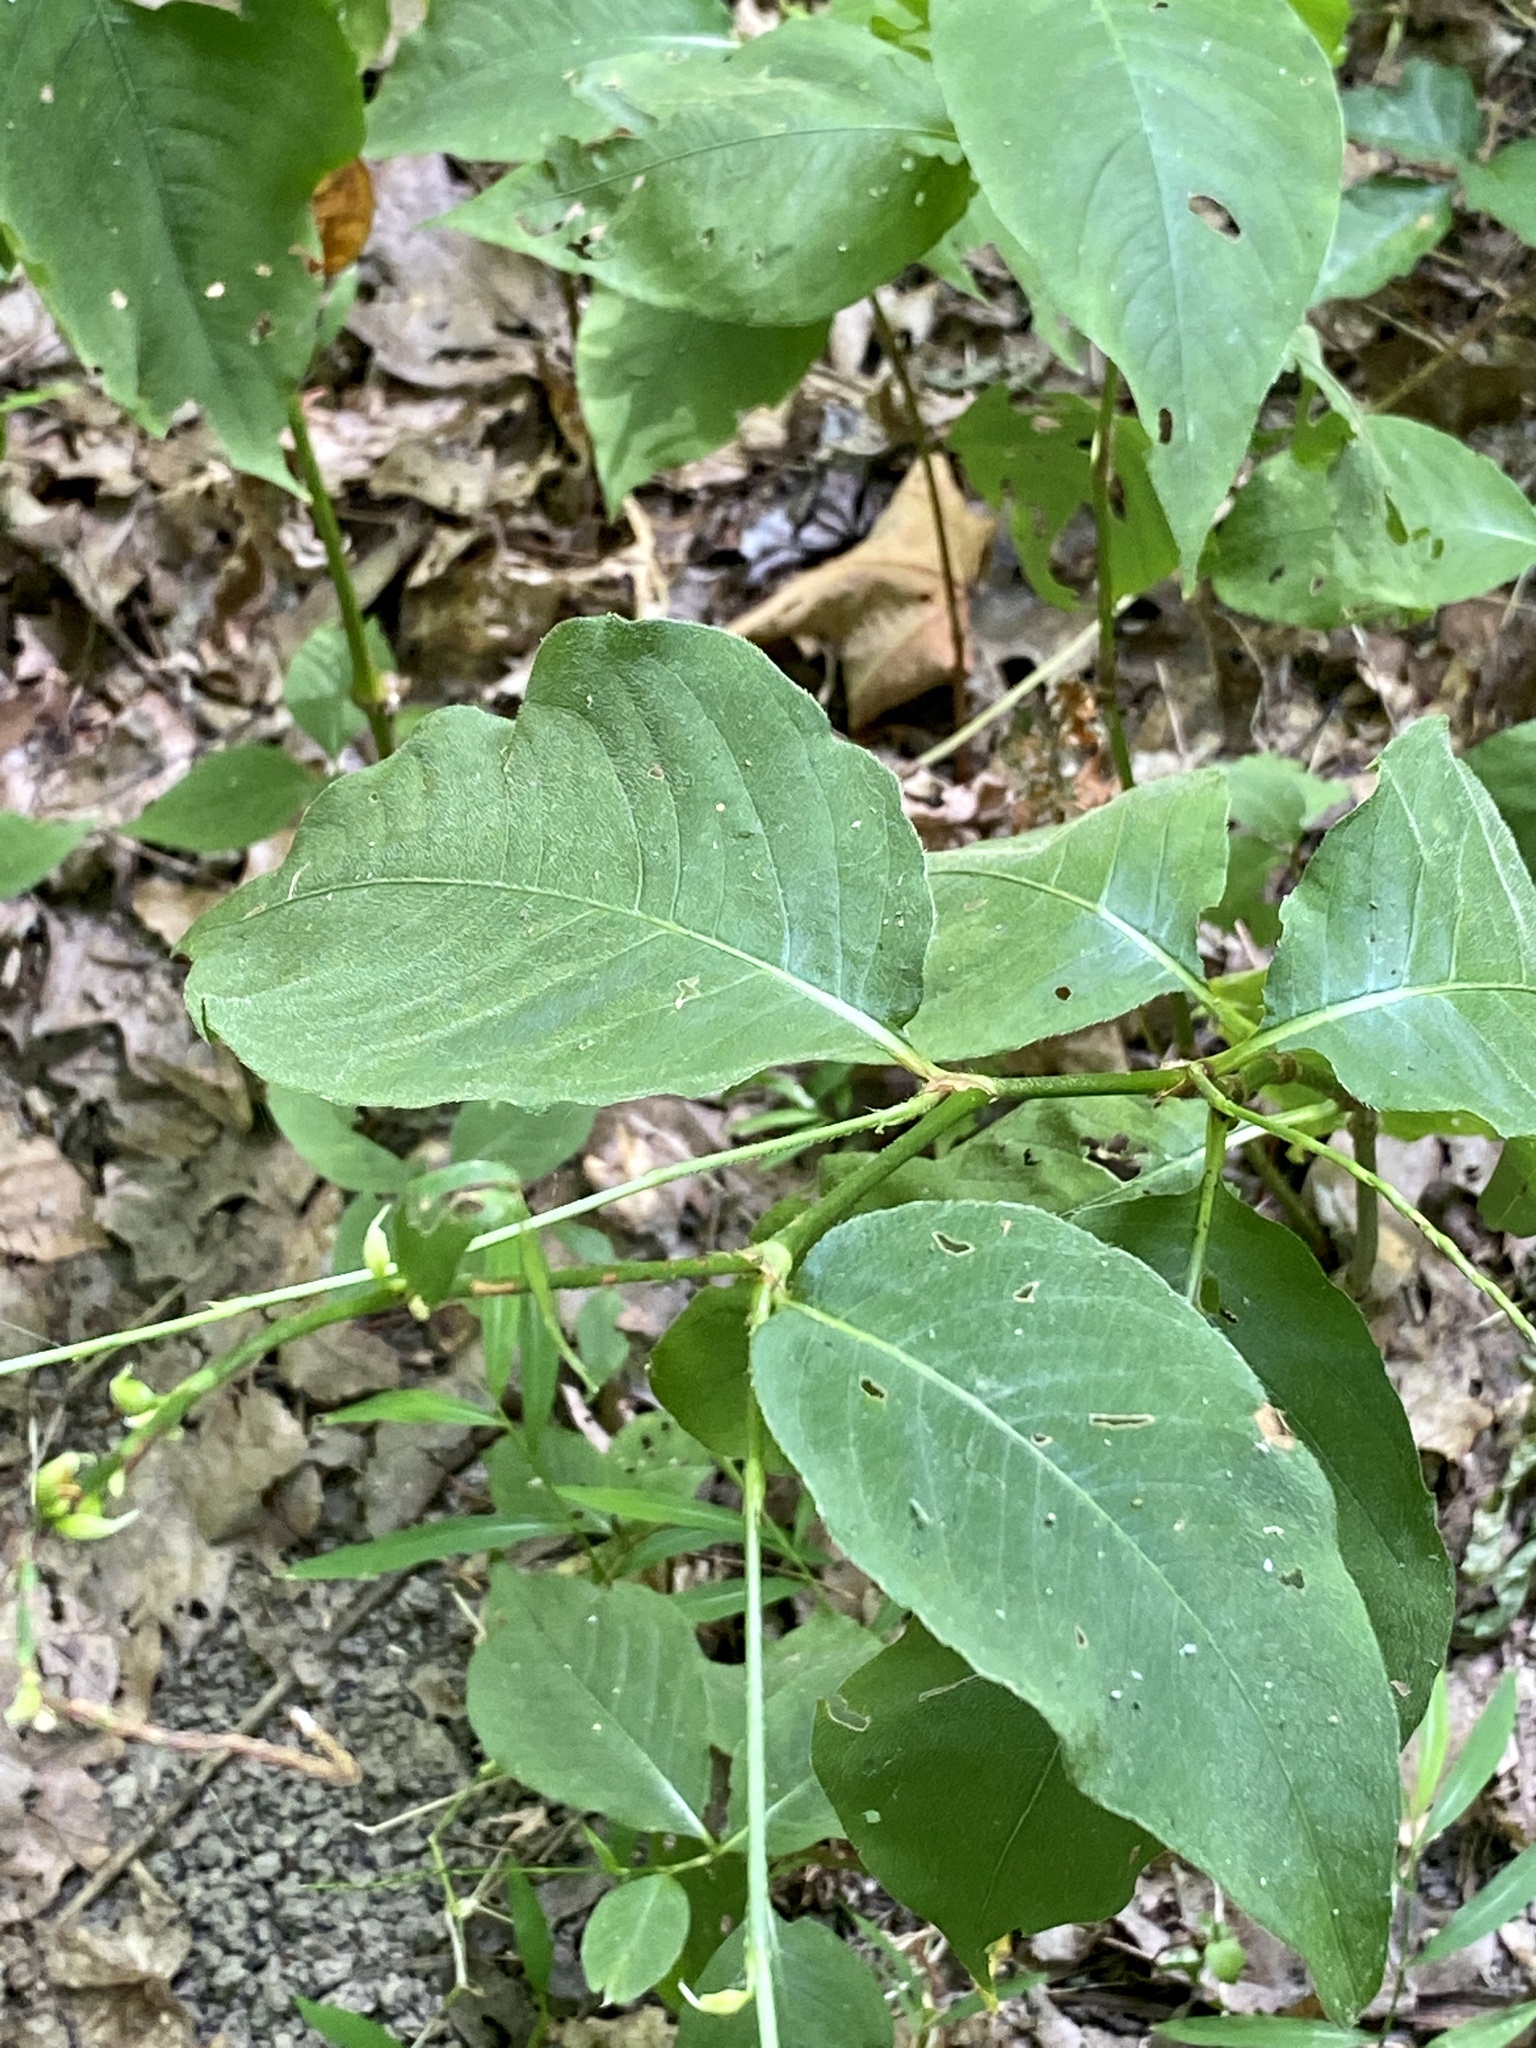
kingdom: Plantae
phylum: Tracheophyta
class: Magnoliopsida
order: Caryophyllales
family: Polygonaceae
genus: Persicaria
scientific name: Persicaria virginiana
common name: Jumpseed
